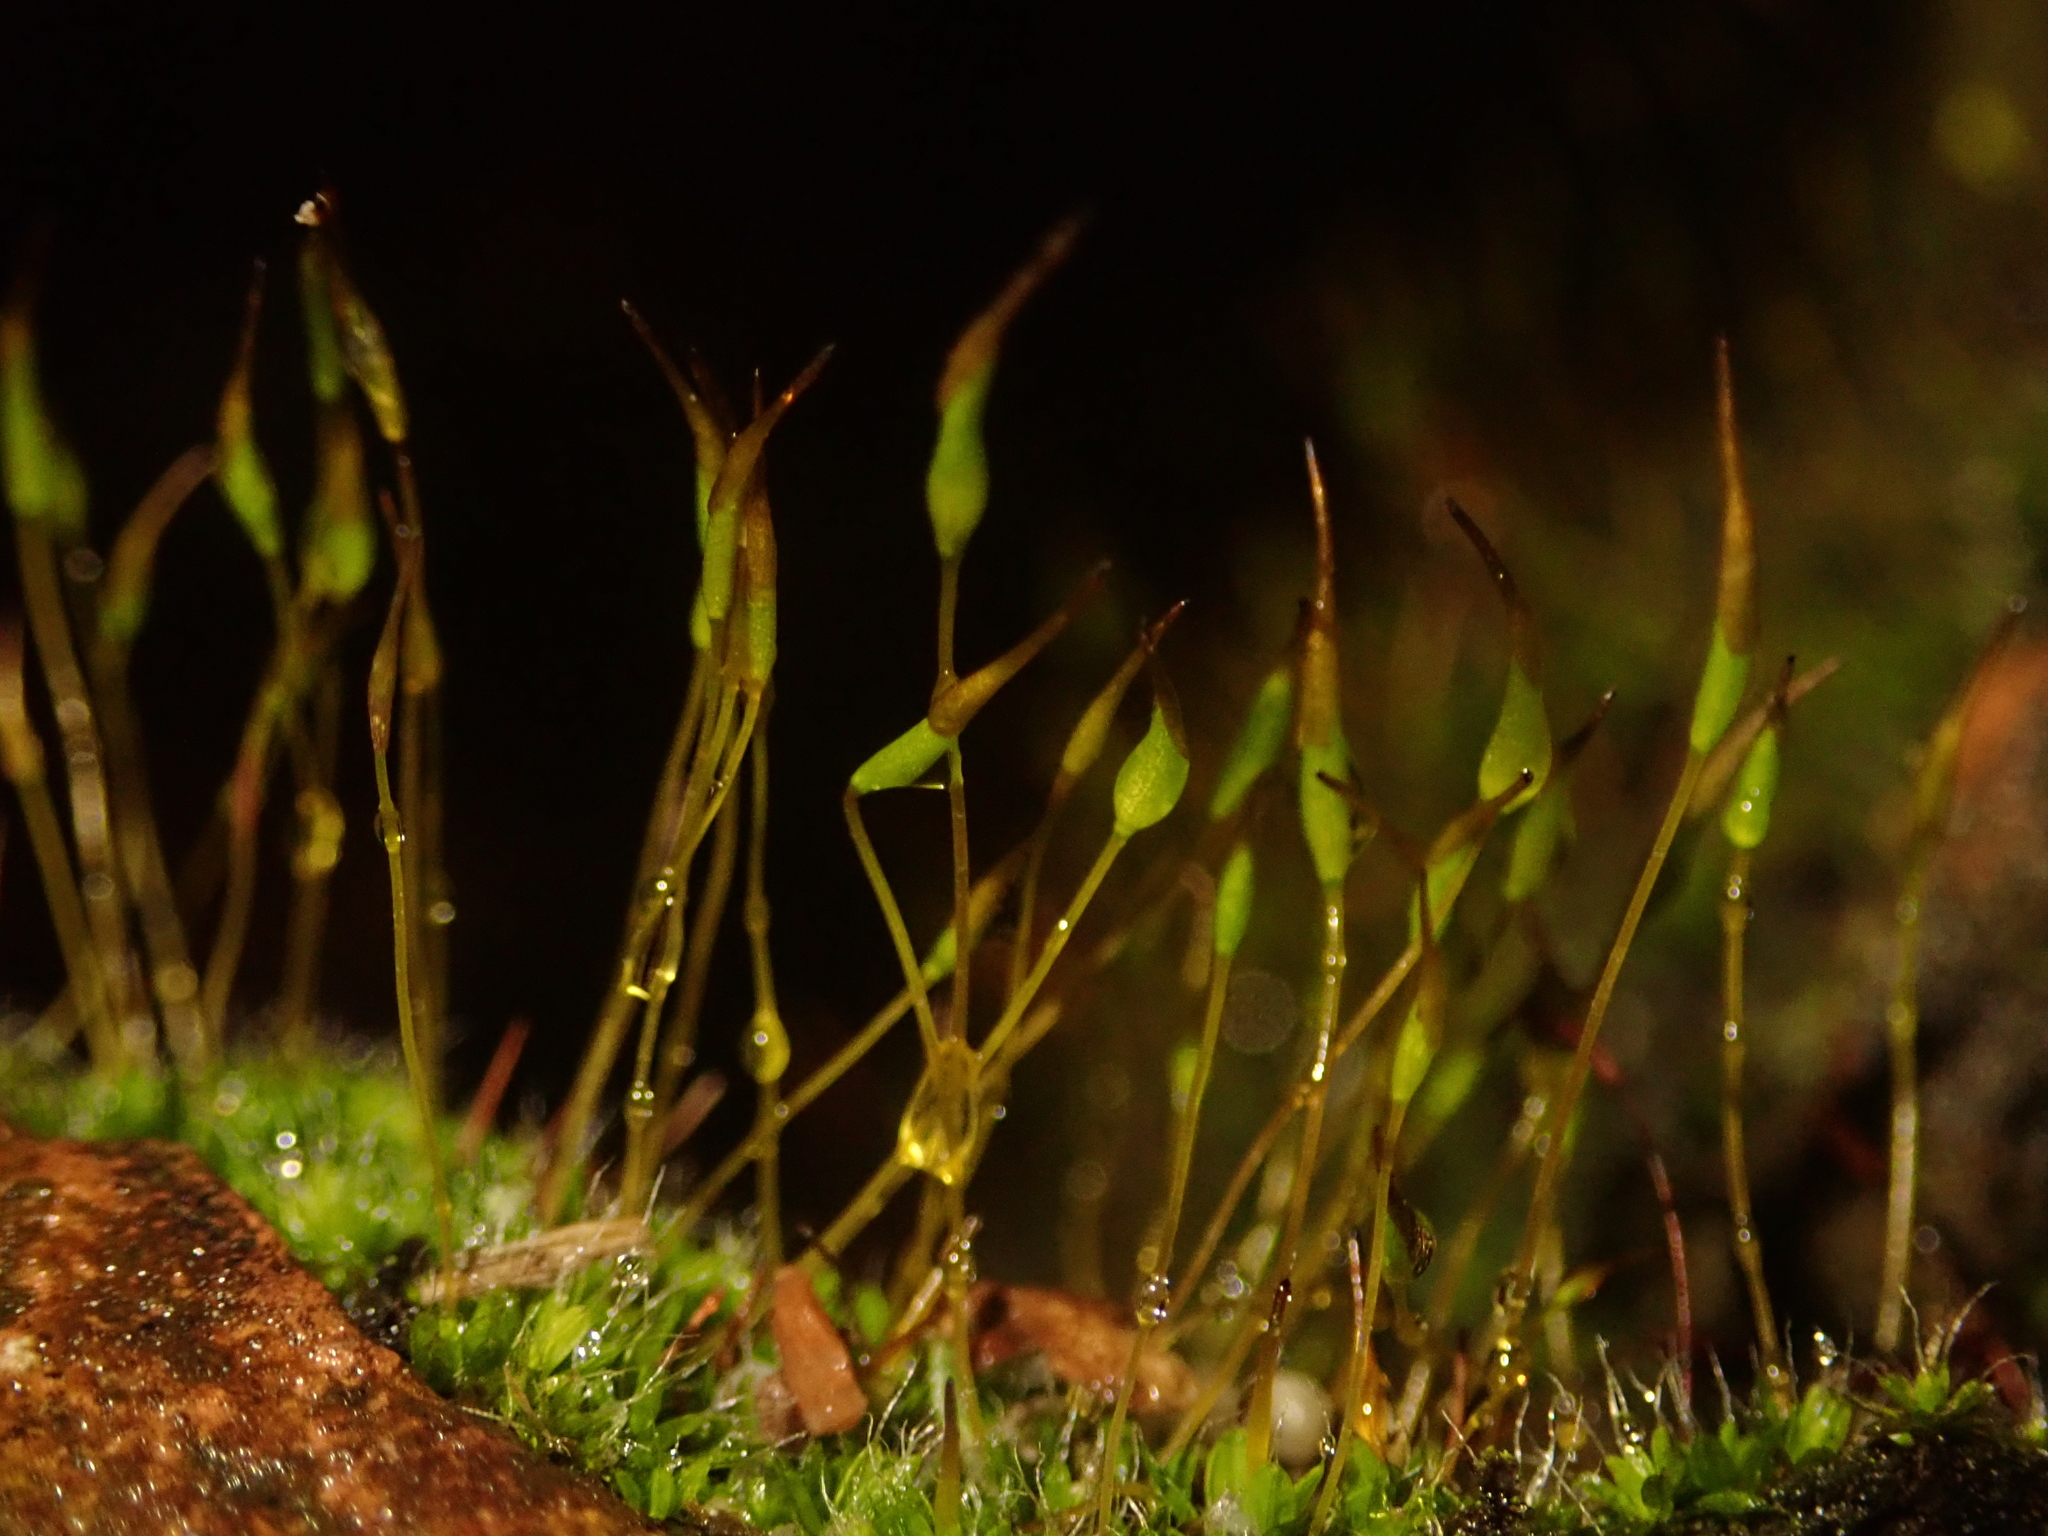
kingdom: Plantae
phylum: Bryophyta
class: Bryopsida
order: Pottiales
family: Pottiaceae
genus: Tortula
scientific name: Tortula muralis
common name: Wall screw-moss
